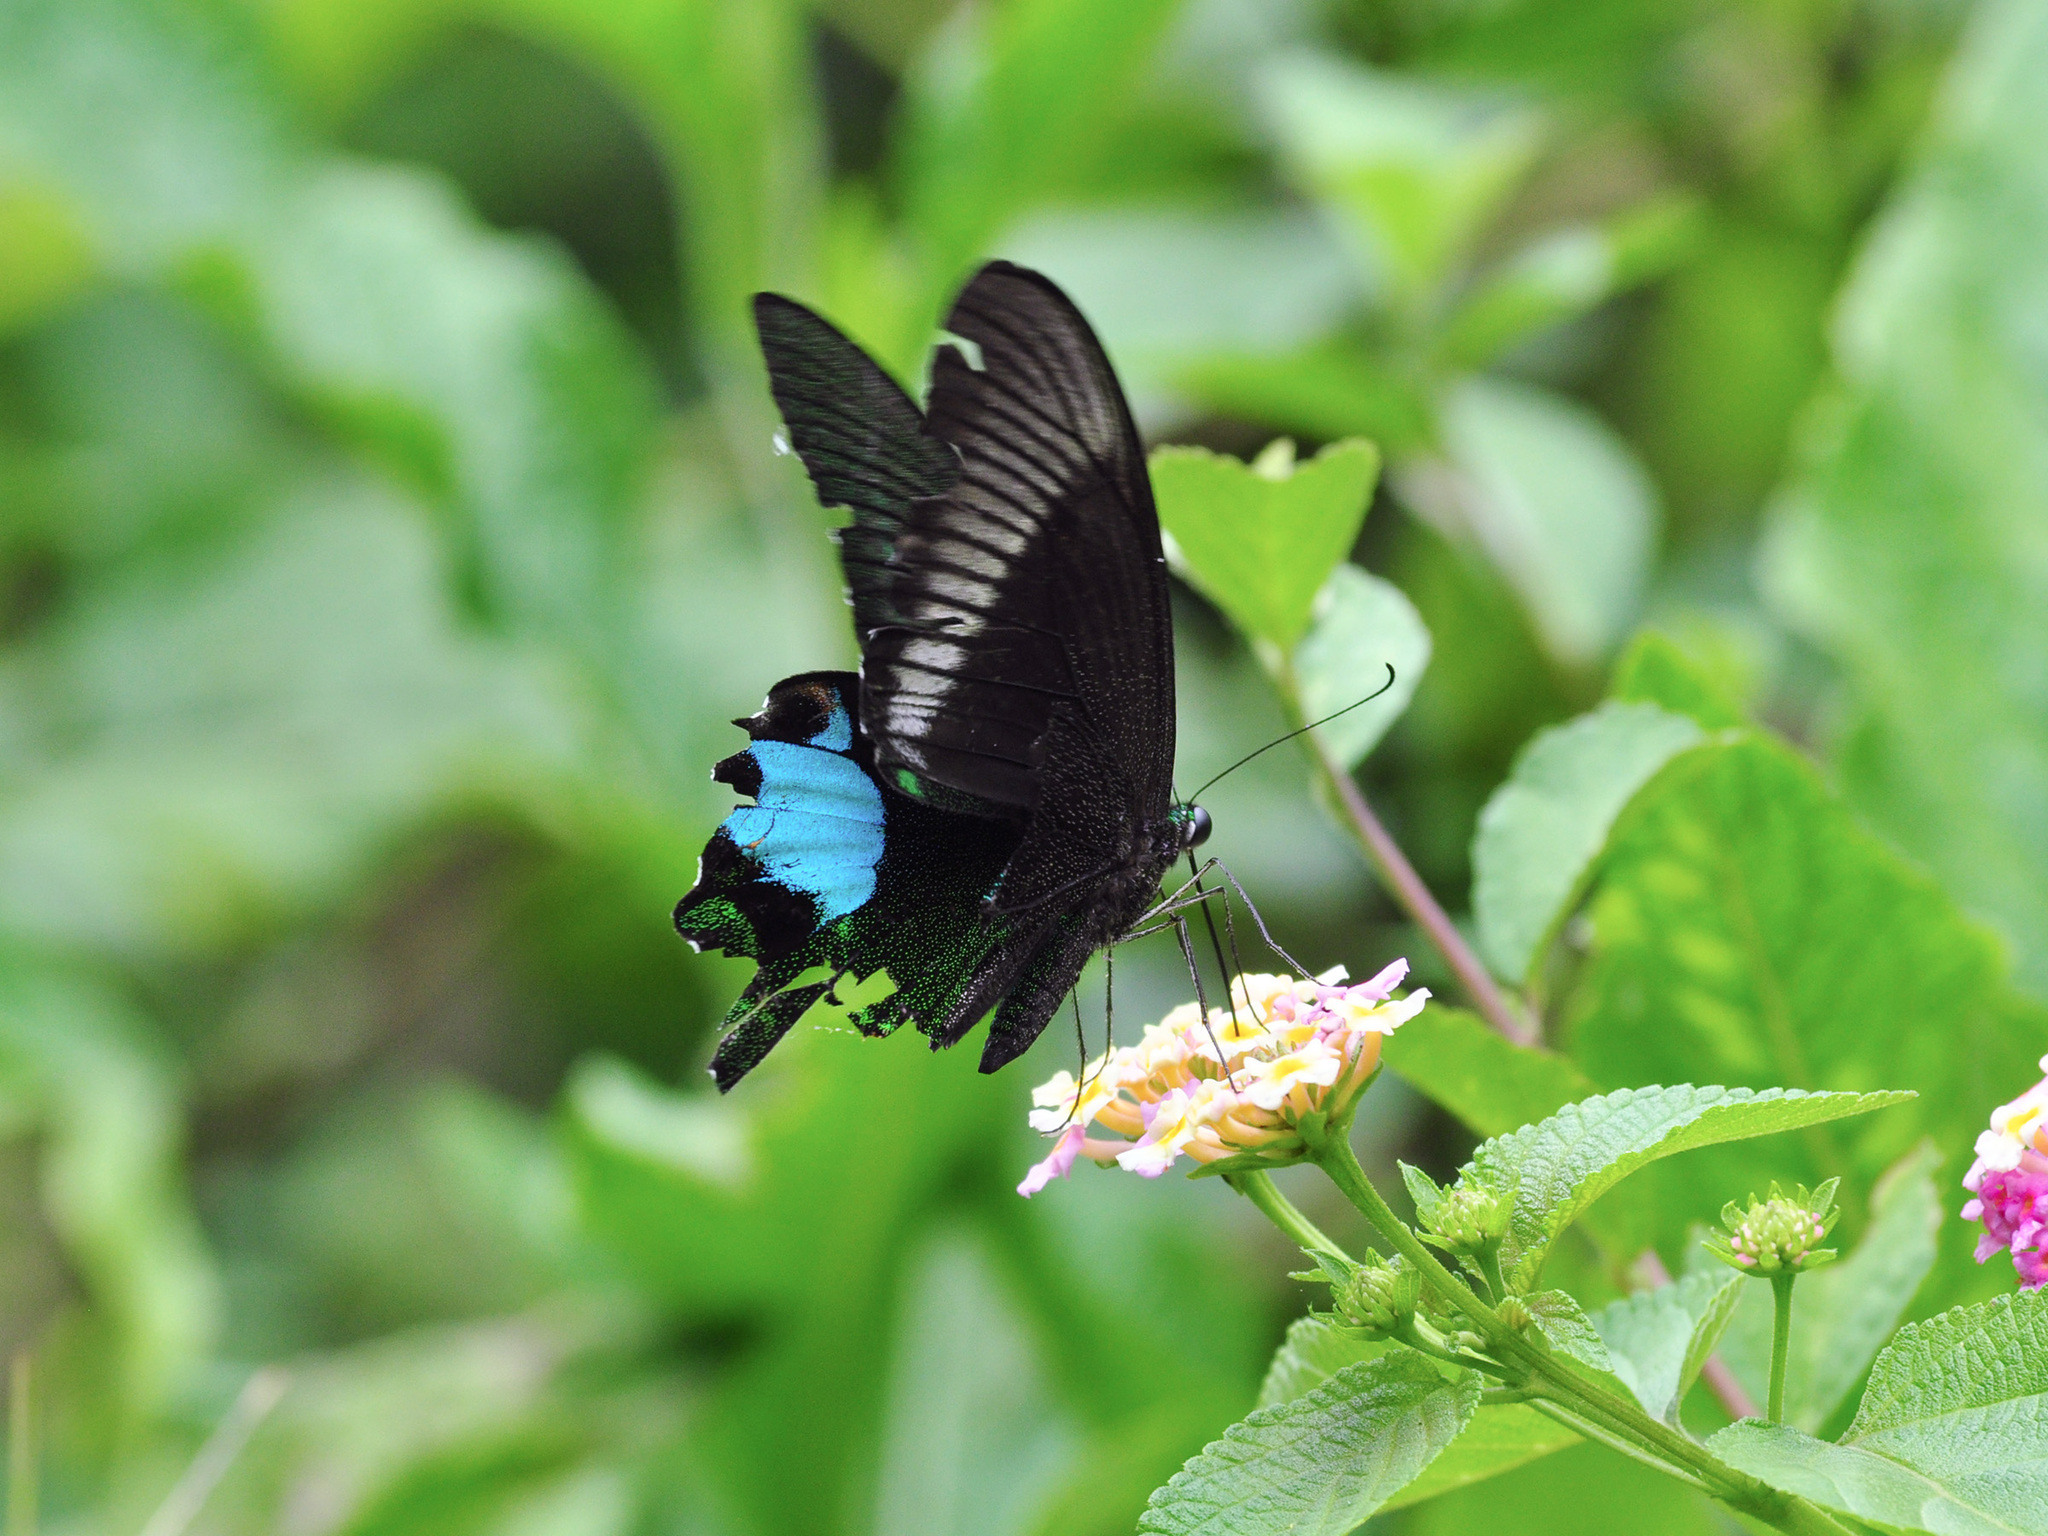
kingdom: Animalia
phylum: Arthropoda
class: Insecta
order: Lepidoptera
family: Papilionidae
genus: Papilio
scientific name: Papilio paris
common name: Paris peacock
